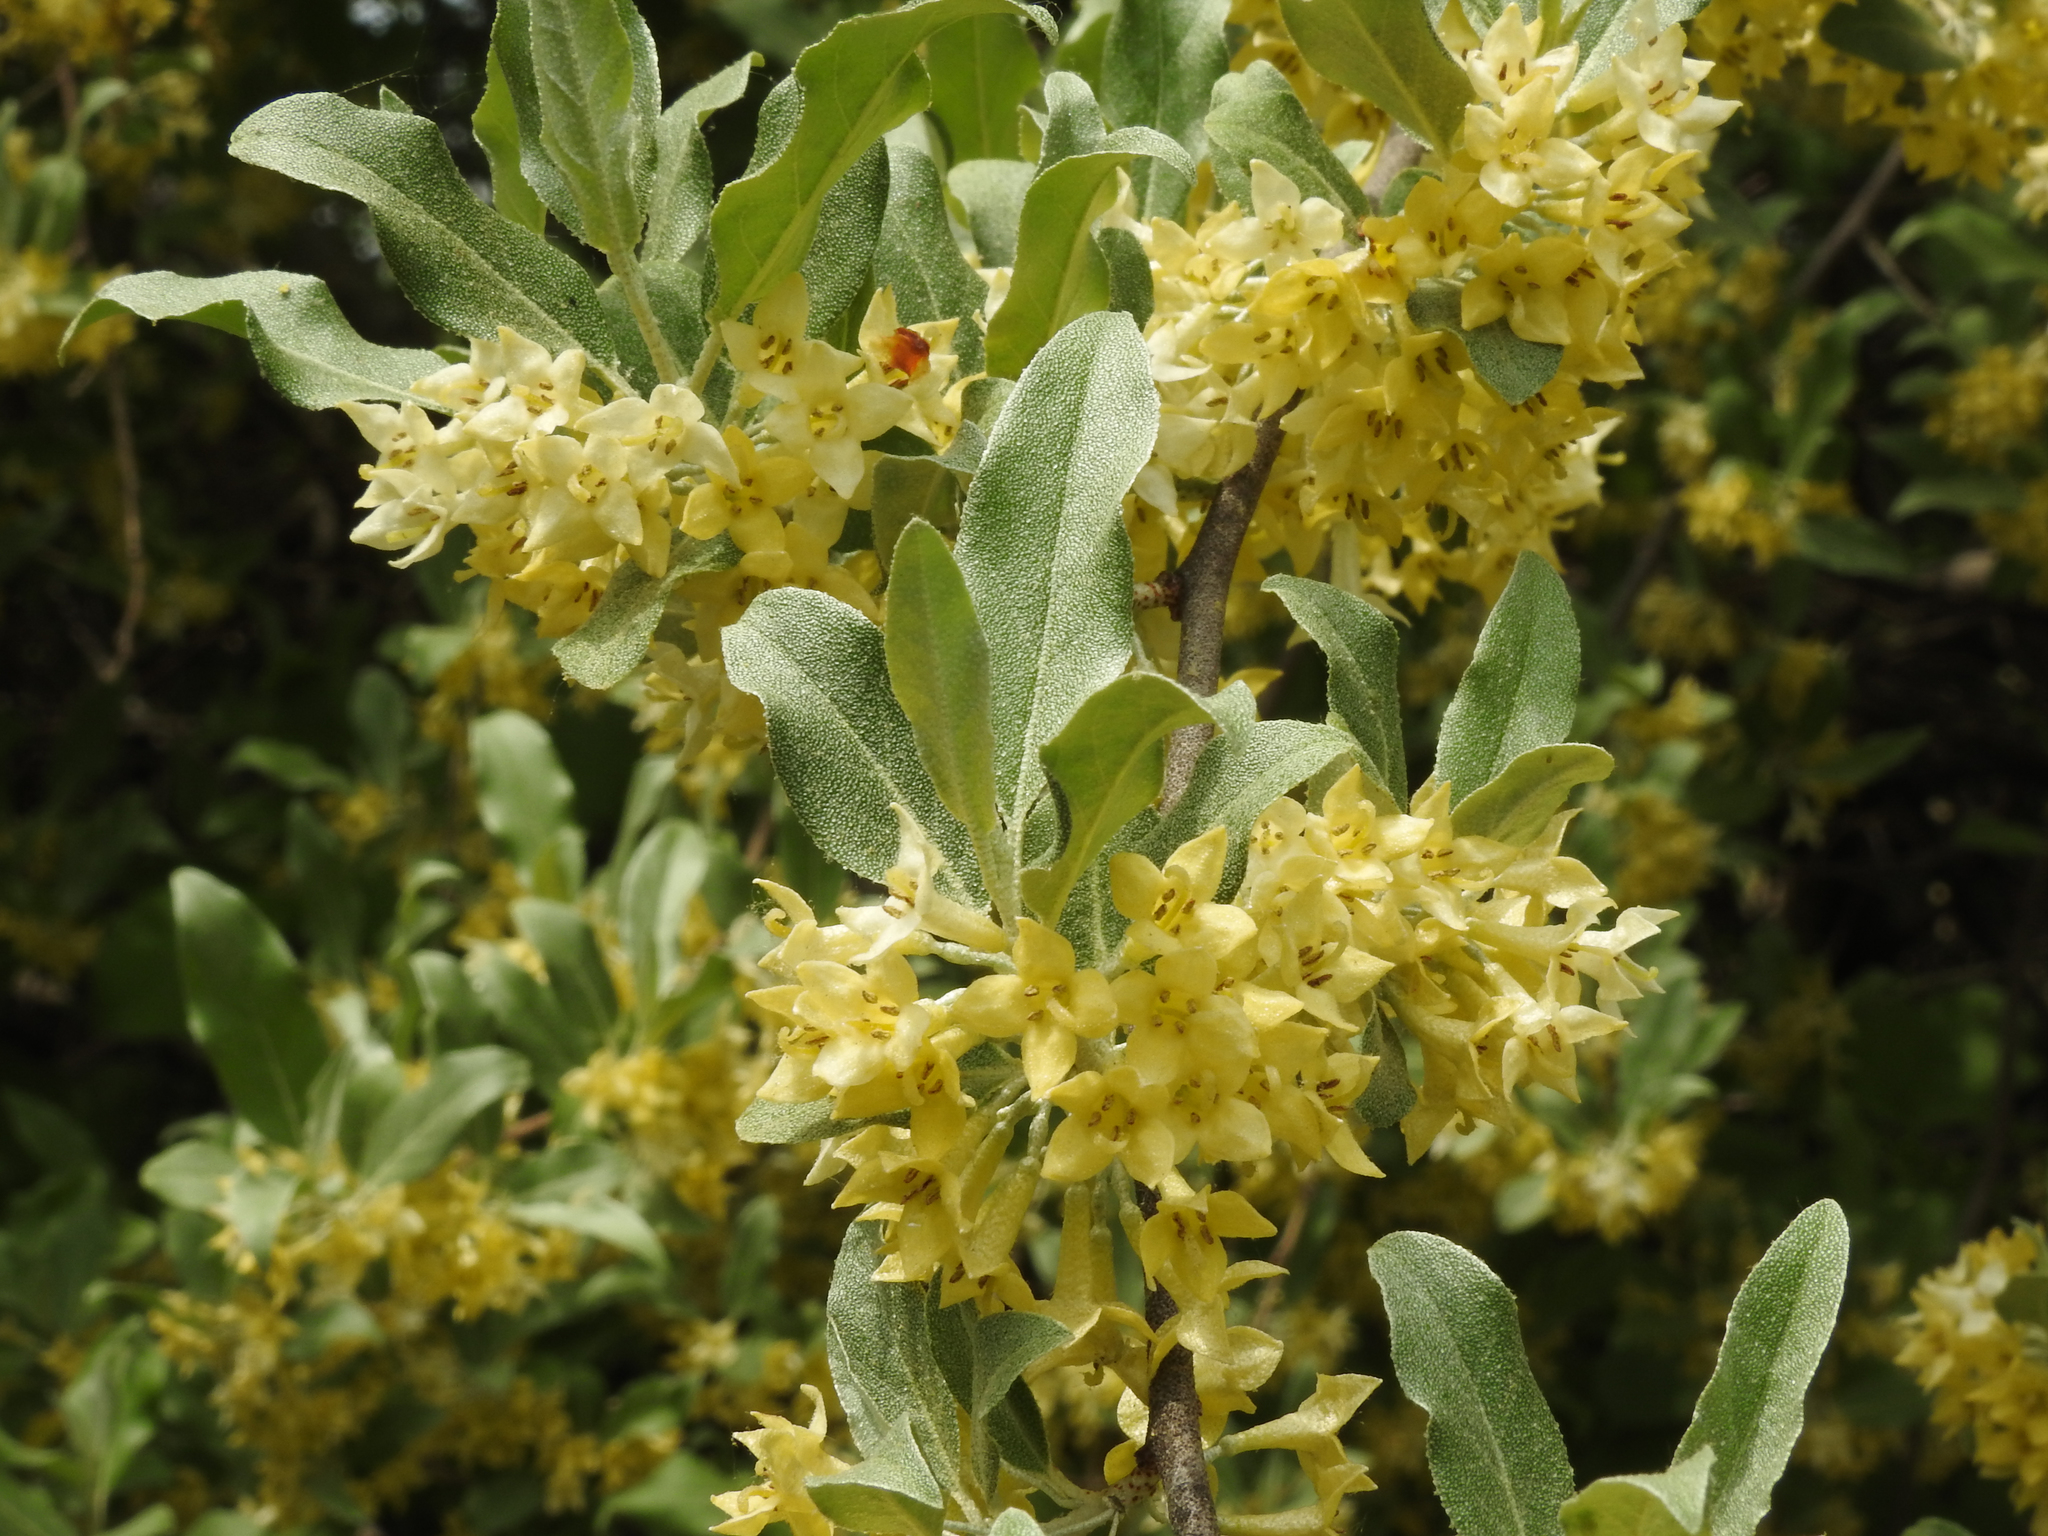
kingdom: Plantae
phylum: Tracheophyta
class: Magnoliopsida
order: Rosales
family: Elaeagnaceae
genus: Elaeagnus
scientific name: Elaeagnus umbellata
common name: Autumn olive
